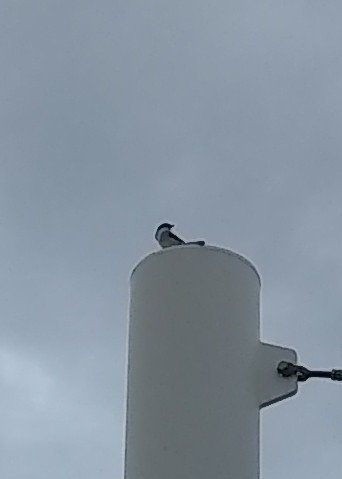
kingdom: Animalia
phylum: Chordata
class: Aves
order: Passeriformes
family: Laniidae
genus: Lanius
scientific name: Lanius ludovicianus
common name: Loggerhead shrike
